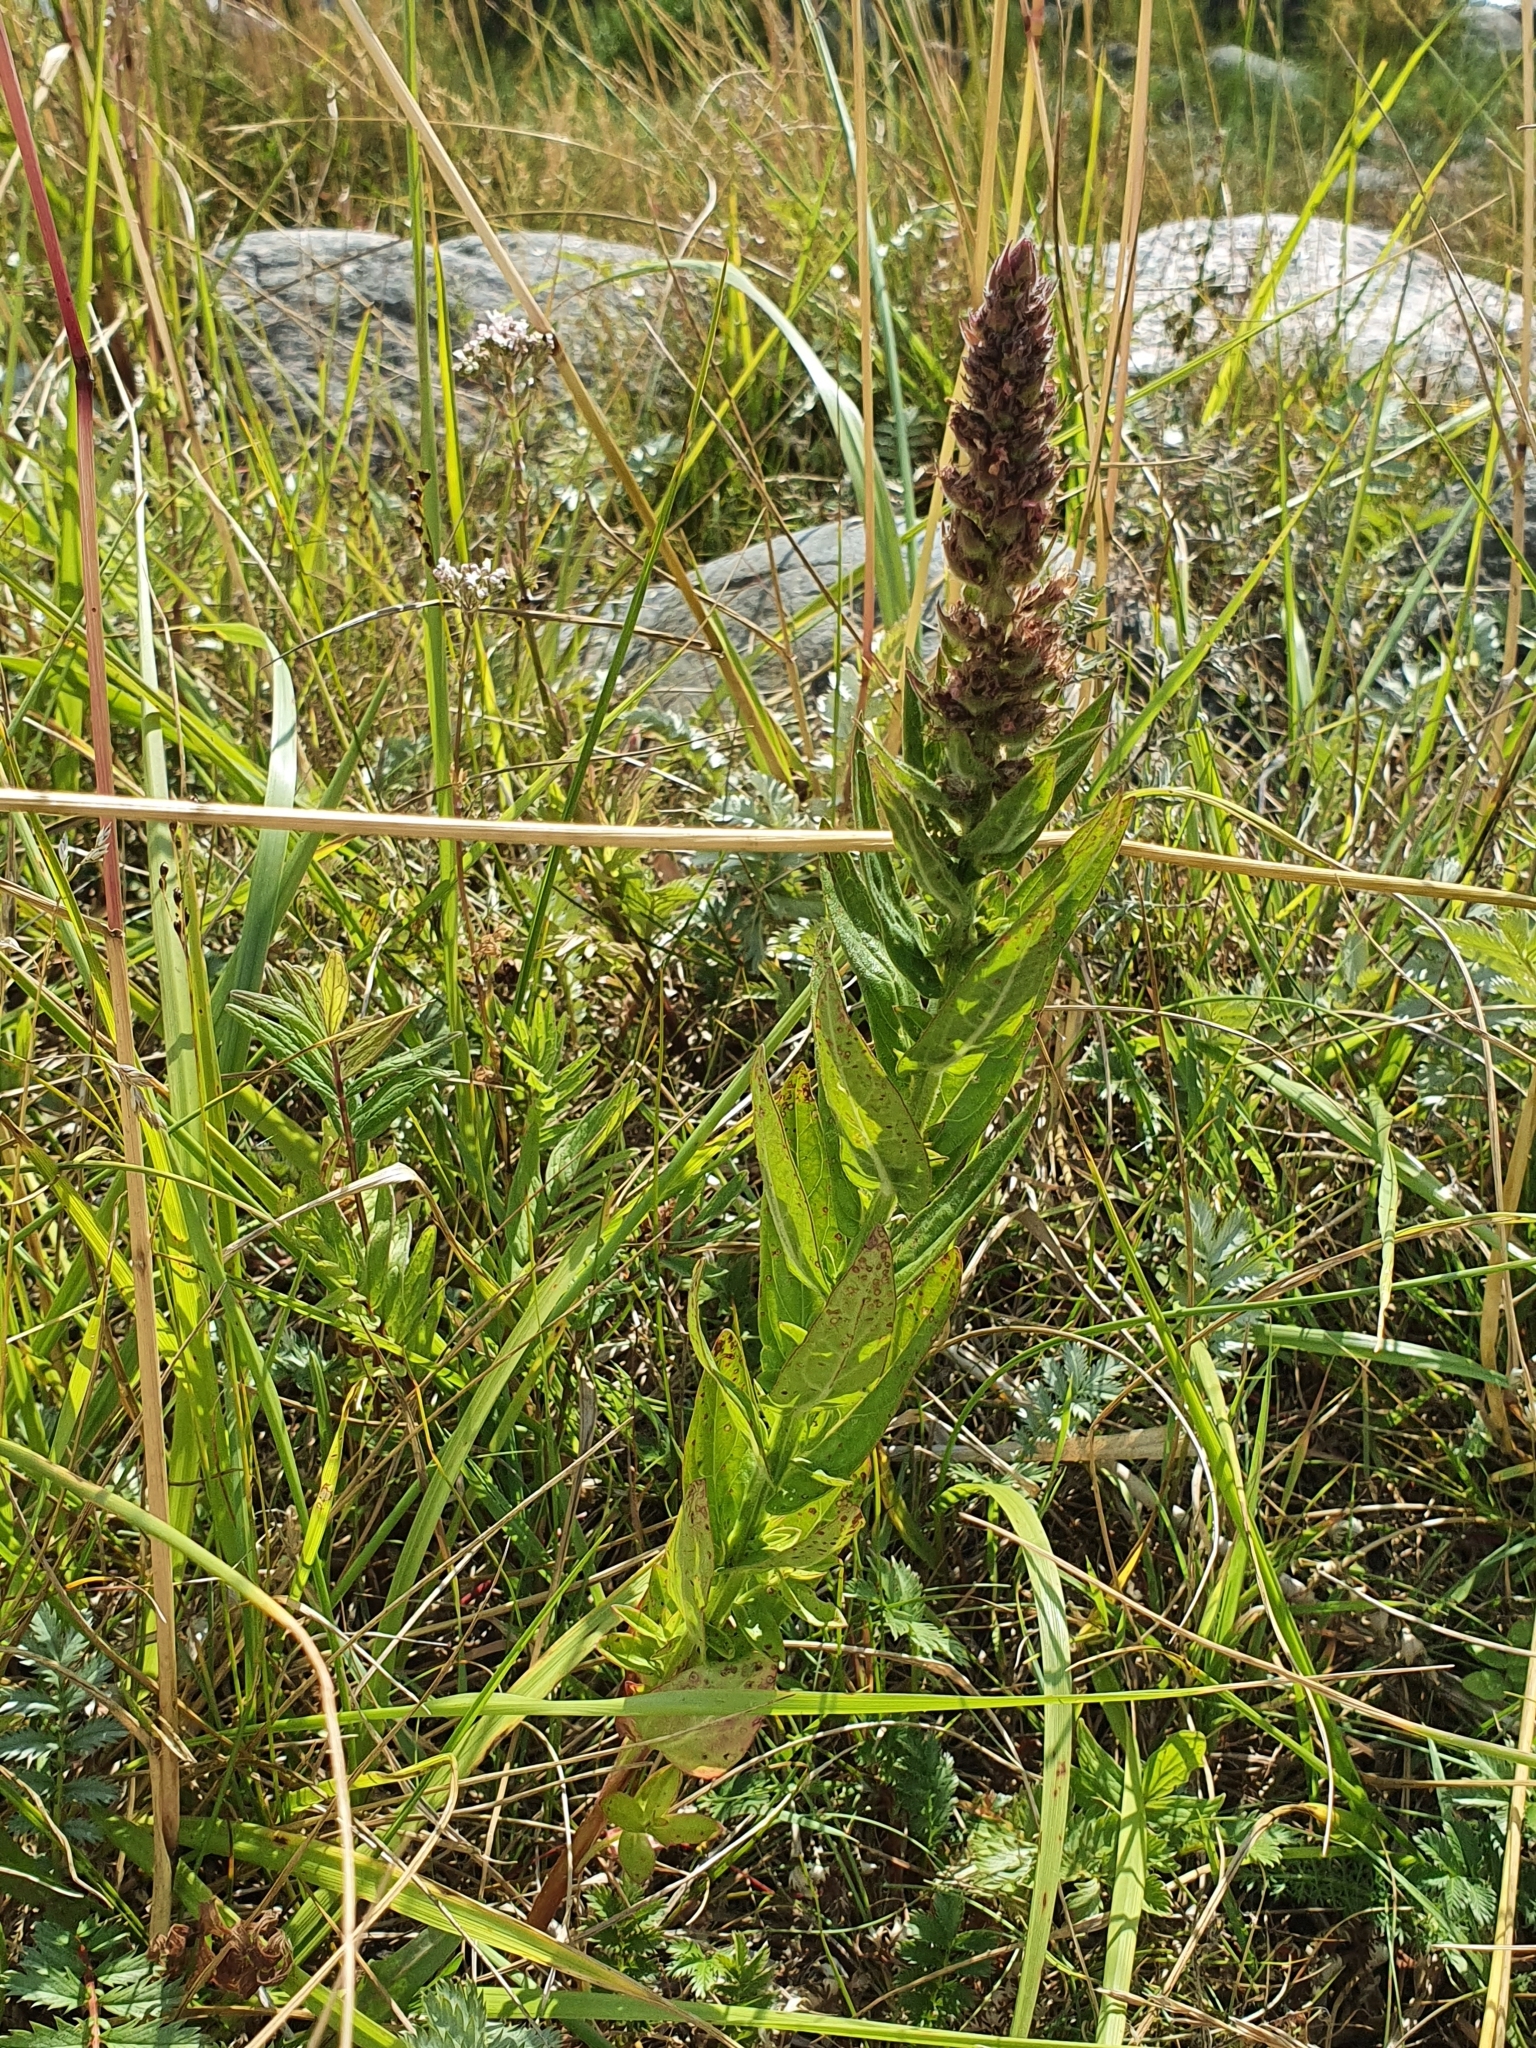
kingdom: Plantae
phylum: Tracheophyta
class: Magnoliopsida
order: Myrtales
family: Lythraceae
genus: Lythrum
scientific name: Lythrum salicaria
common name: Purple loosestrife
